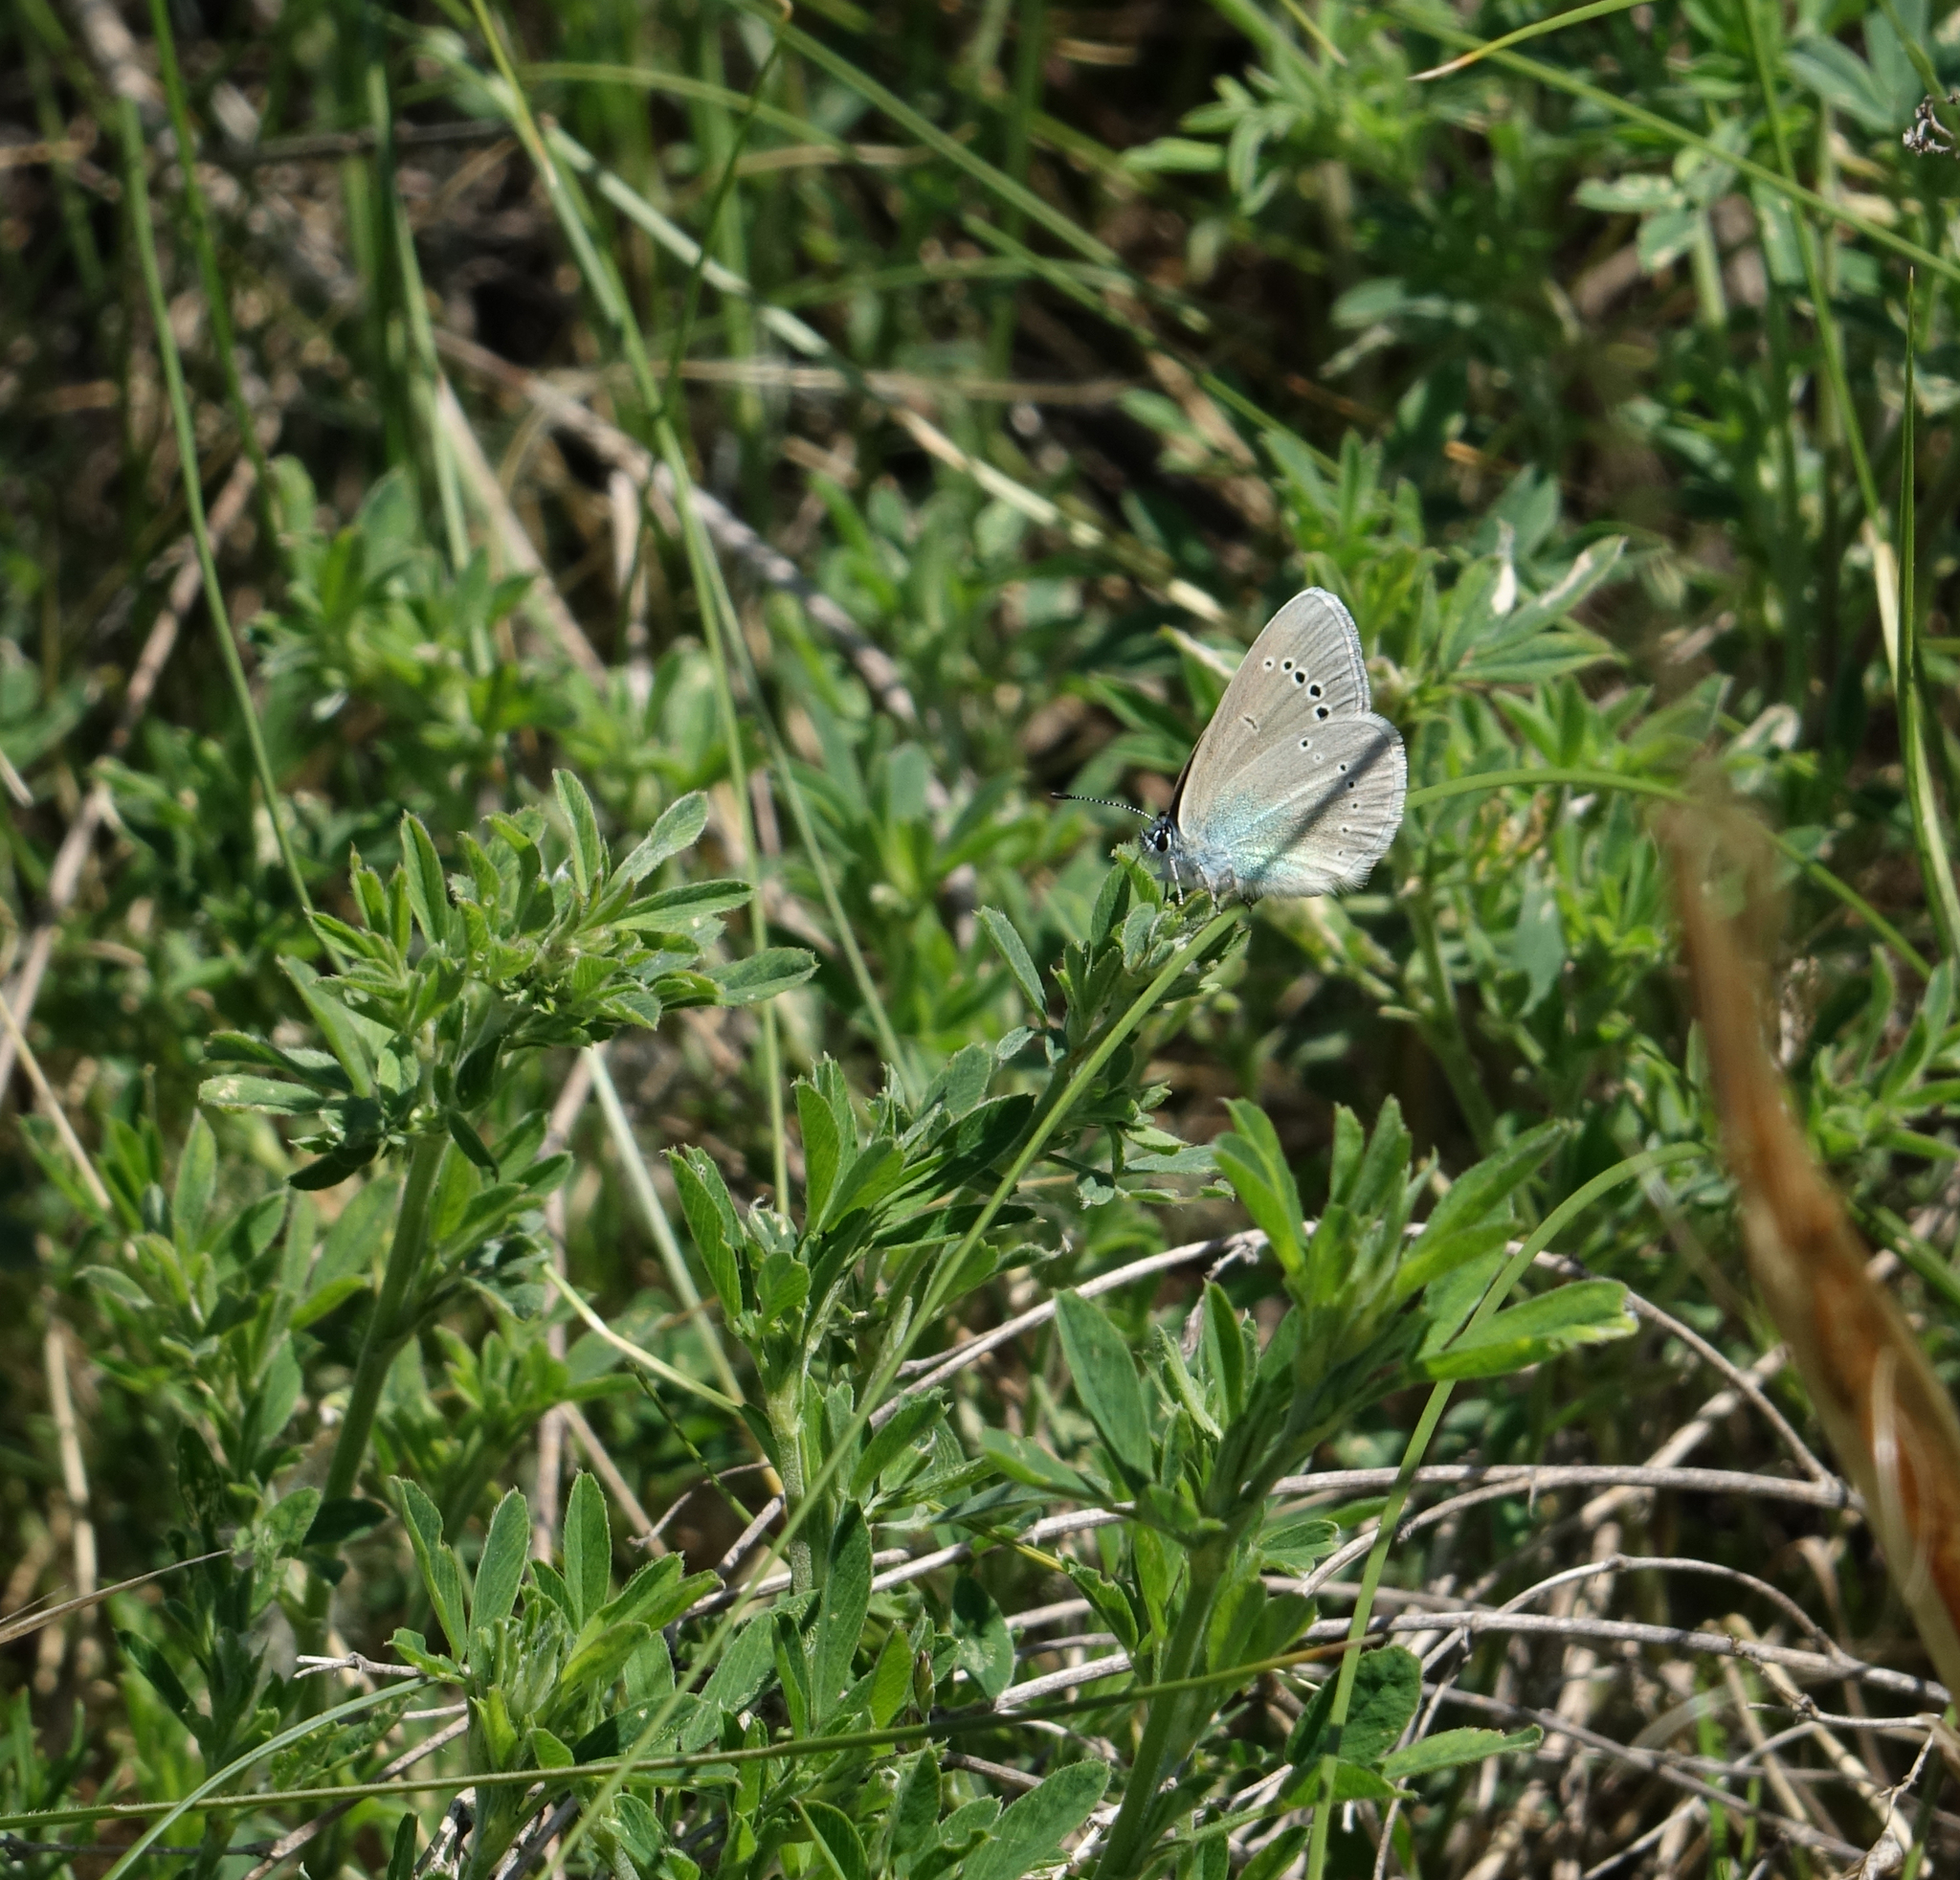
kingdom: Animalia
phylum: Arthropoda
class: Insecta
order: Lepidoptera
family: Lycaenidae
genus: Glaucopsyche
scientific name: Glaucopsyche lycormas
